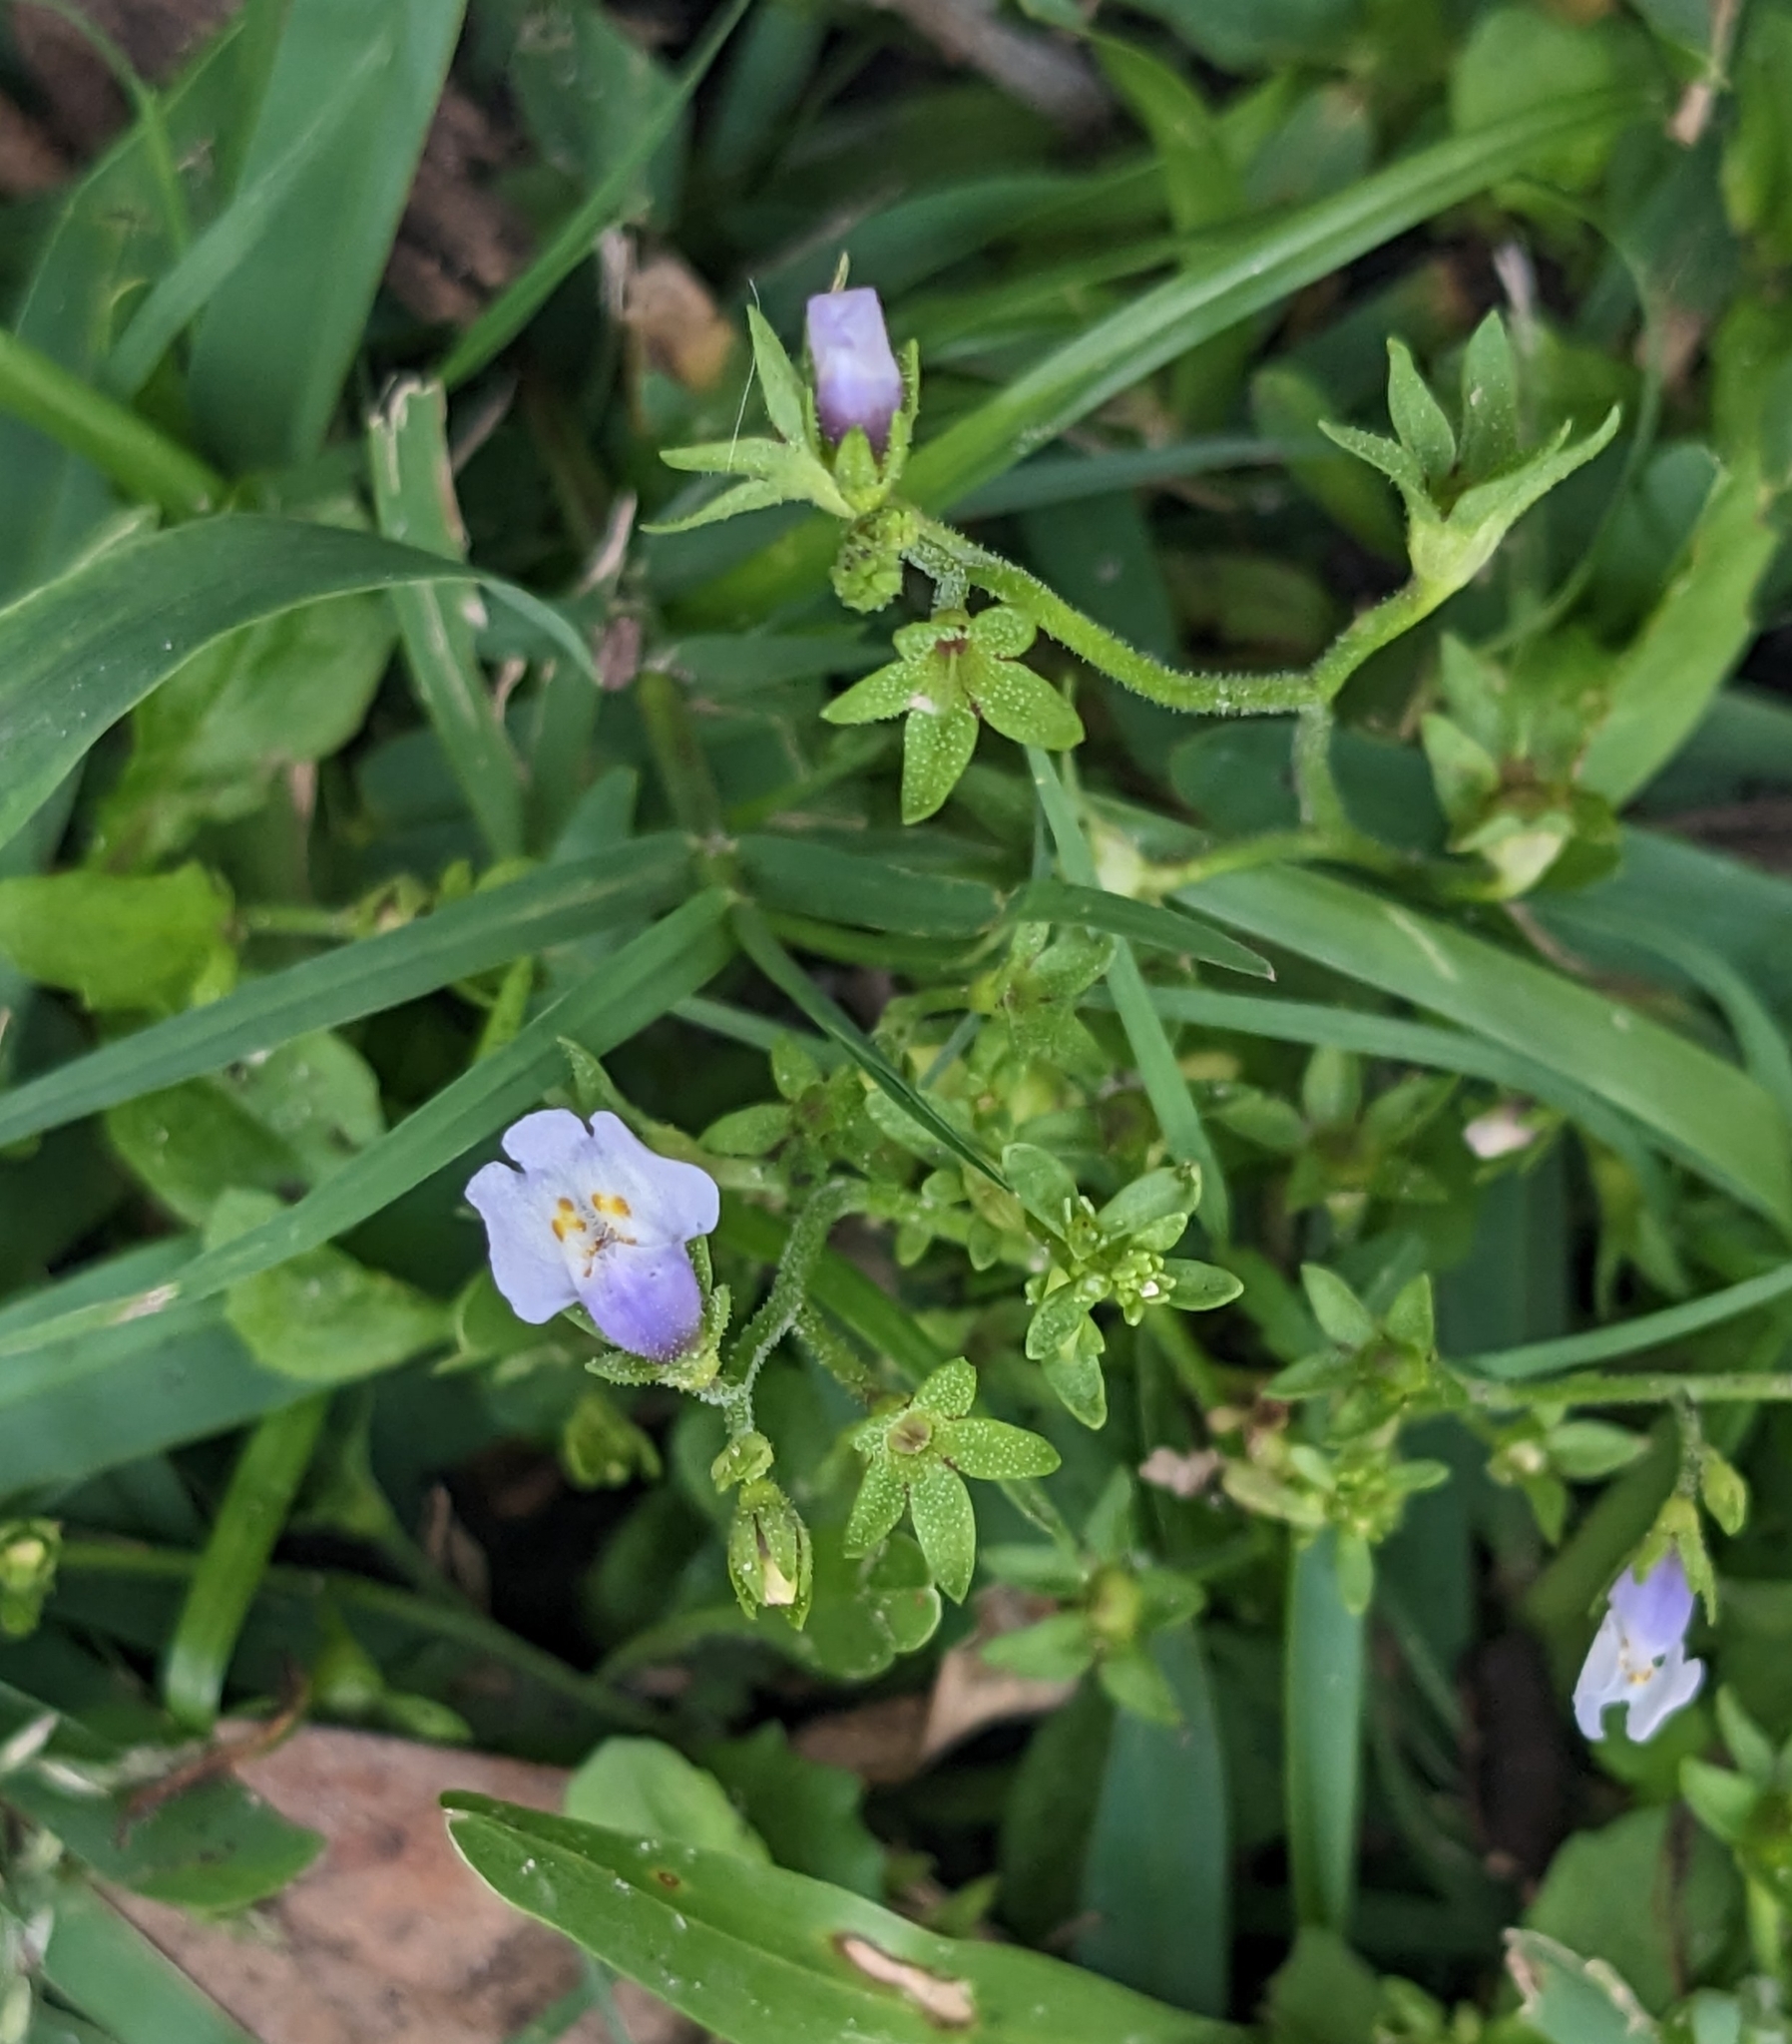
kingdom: Plantae
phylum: Tracheophyta
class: Magnoliopsida
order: Lamiales
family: Mazaceae
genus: Mazus
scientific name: Mazus pumilus
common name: Japanese mazus
